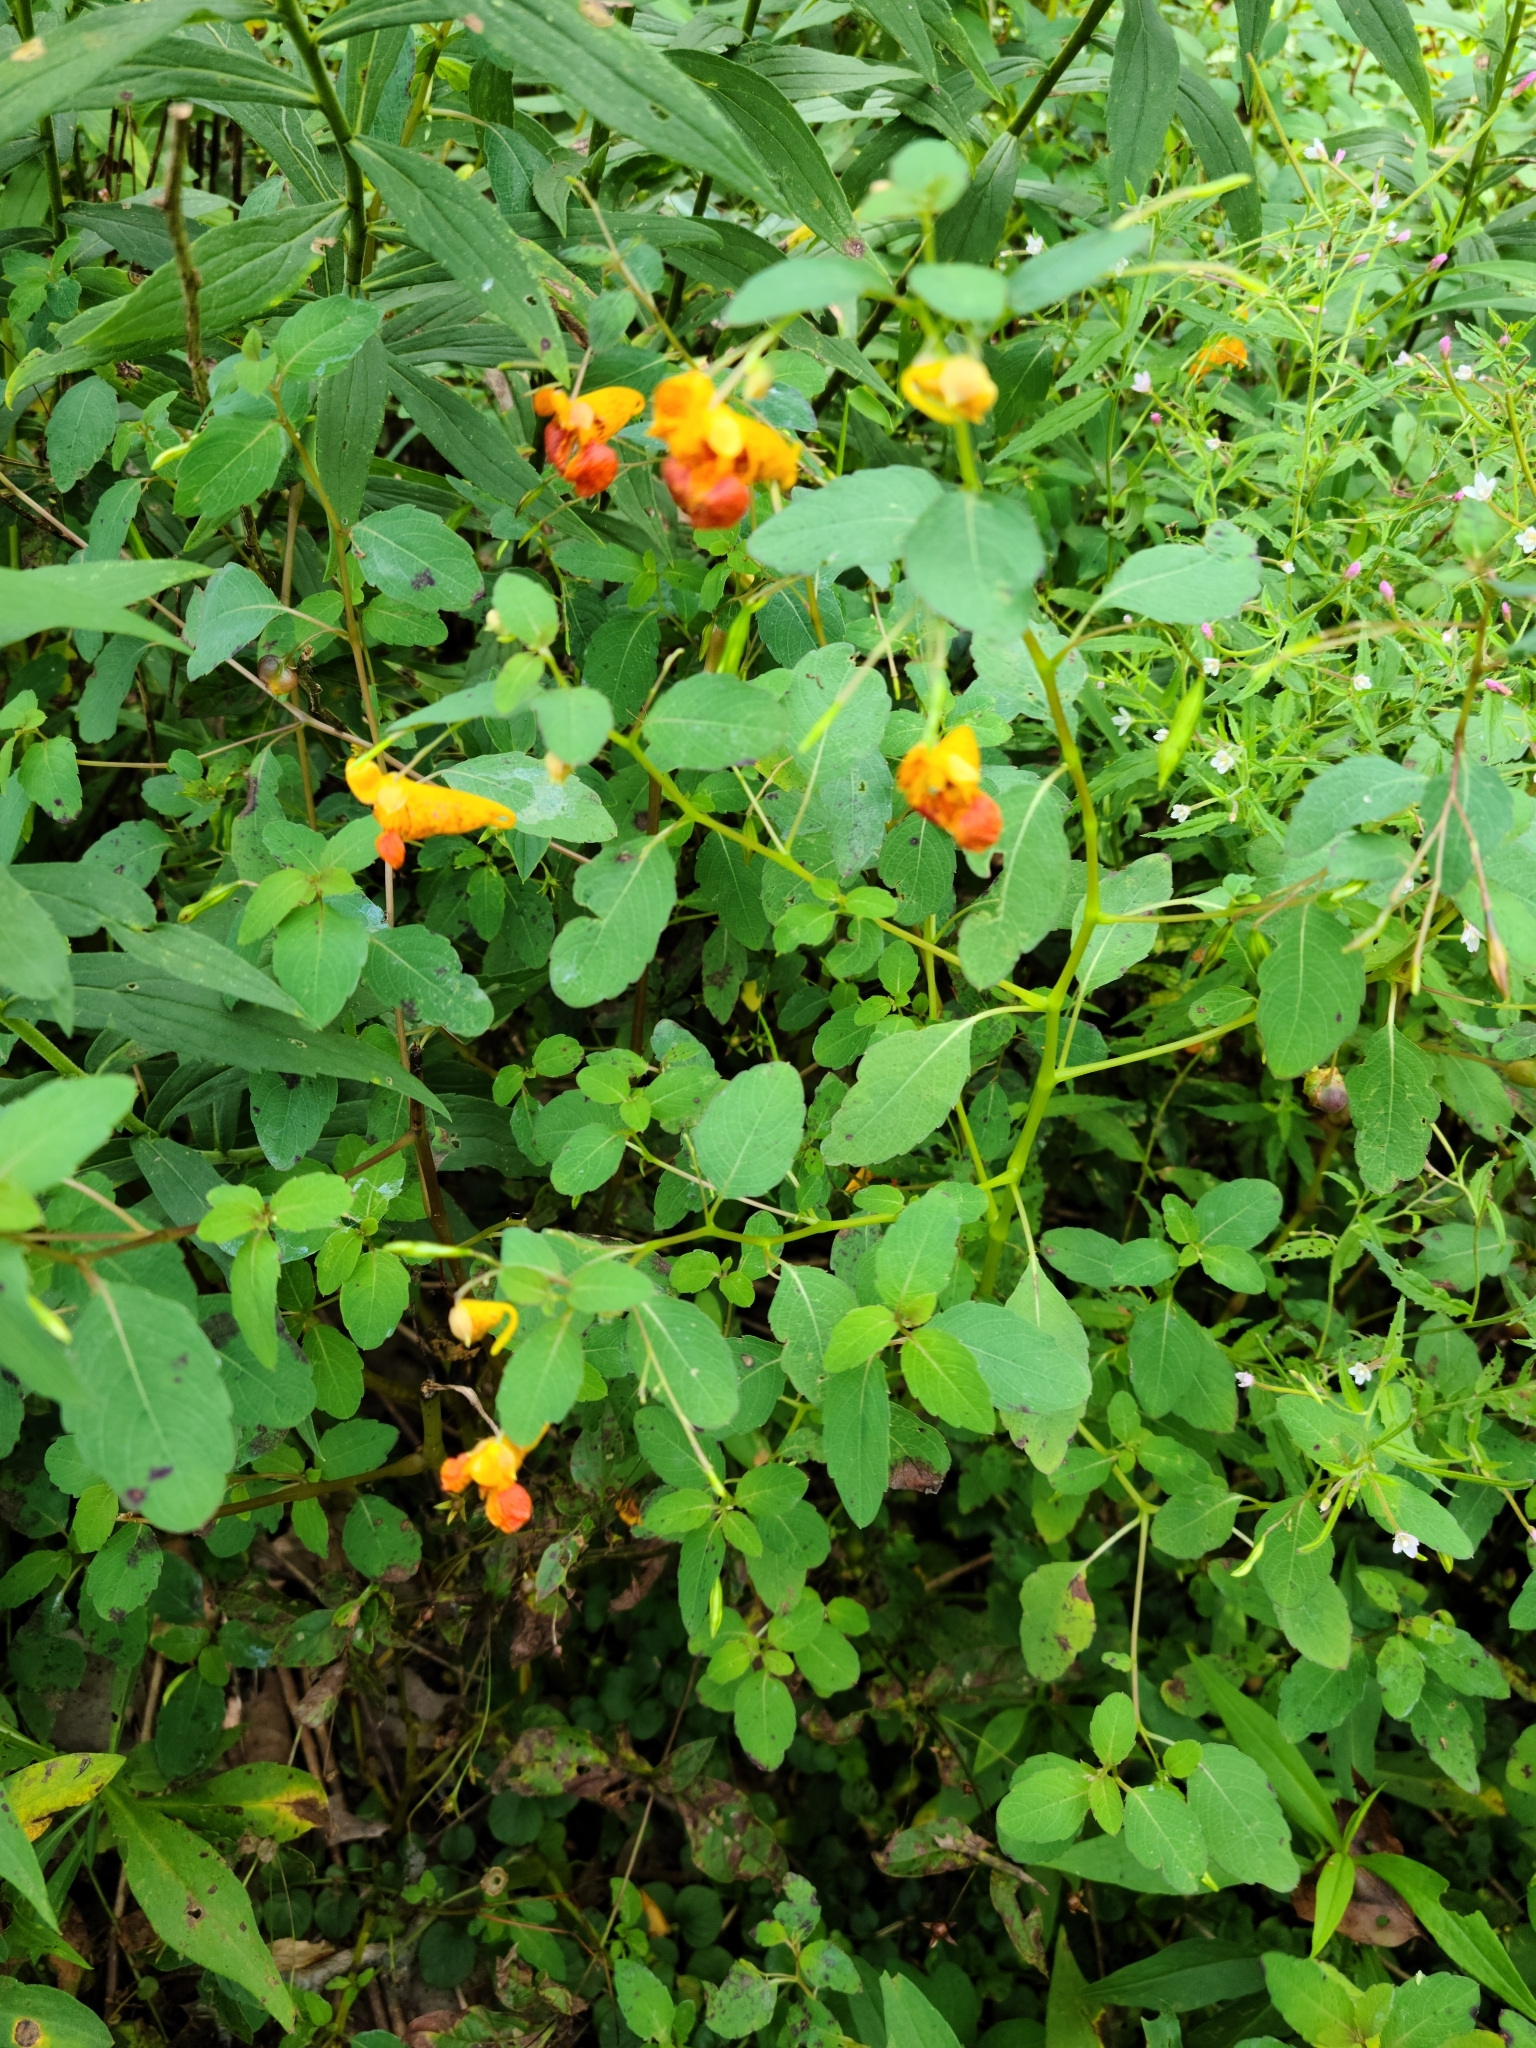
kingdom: Plantae
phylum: Tracheophyta
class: Magnoliopsida
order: Ericales
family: Balsaminaceae
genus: Impatiens
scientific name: Impatiens capensis
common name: Orange balsam
